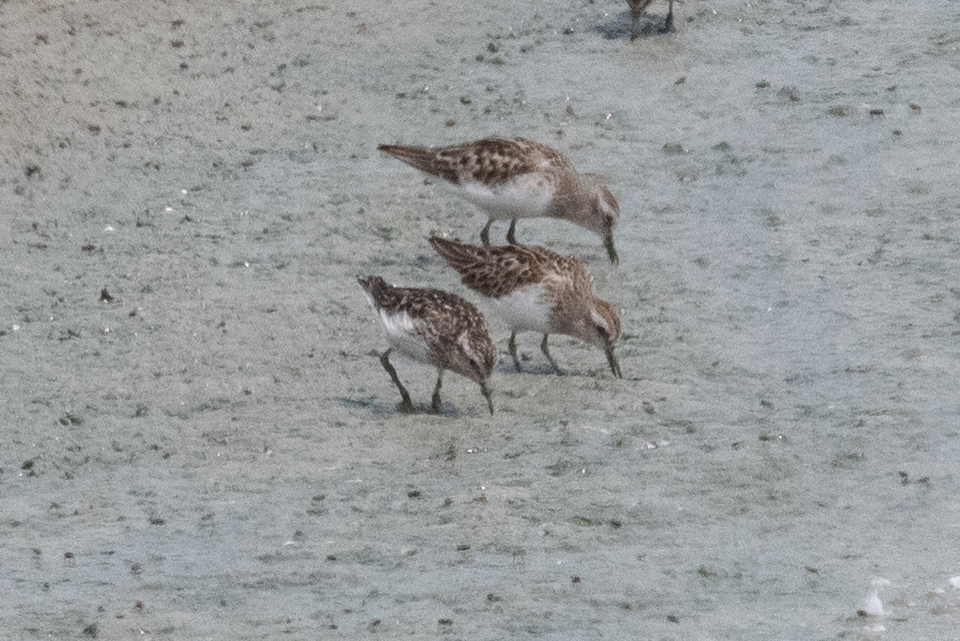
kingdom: Animalia
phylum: Chordata
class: Aves
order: Charadriiformes
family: Scolopacidae
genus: Calidris
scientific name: Calidris minutilla
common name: Least sandpiper
